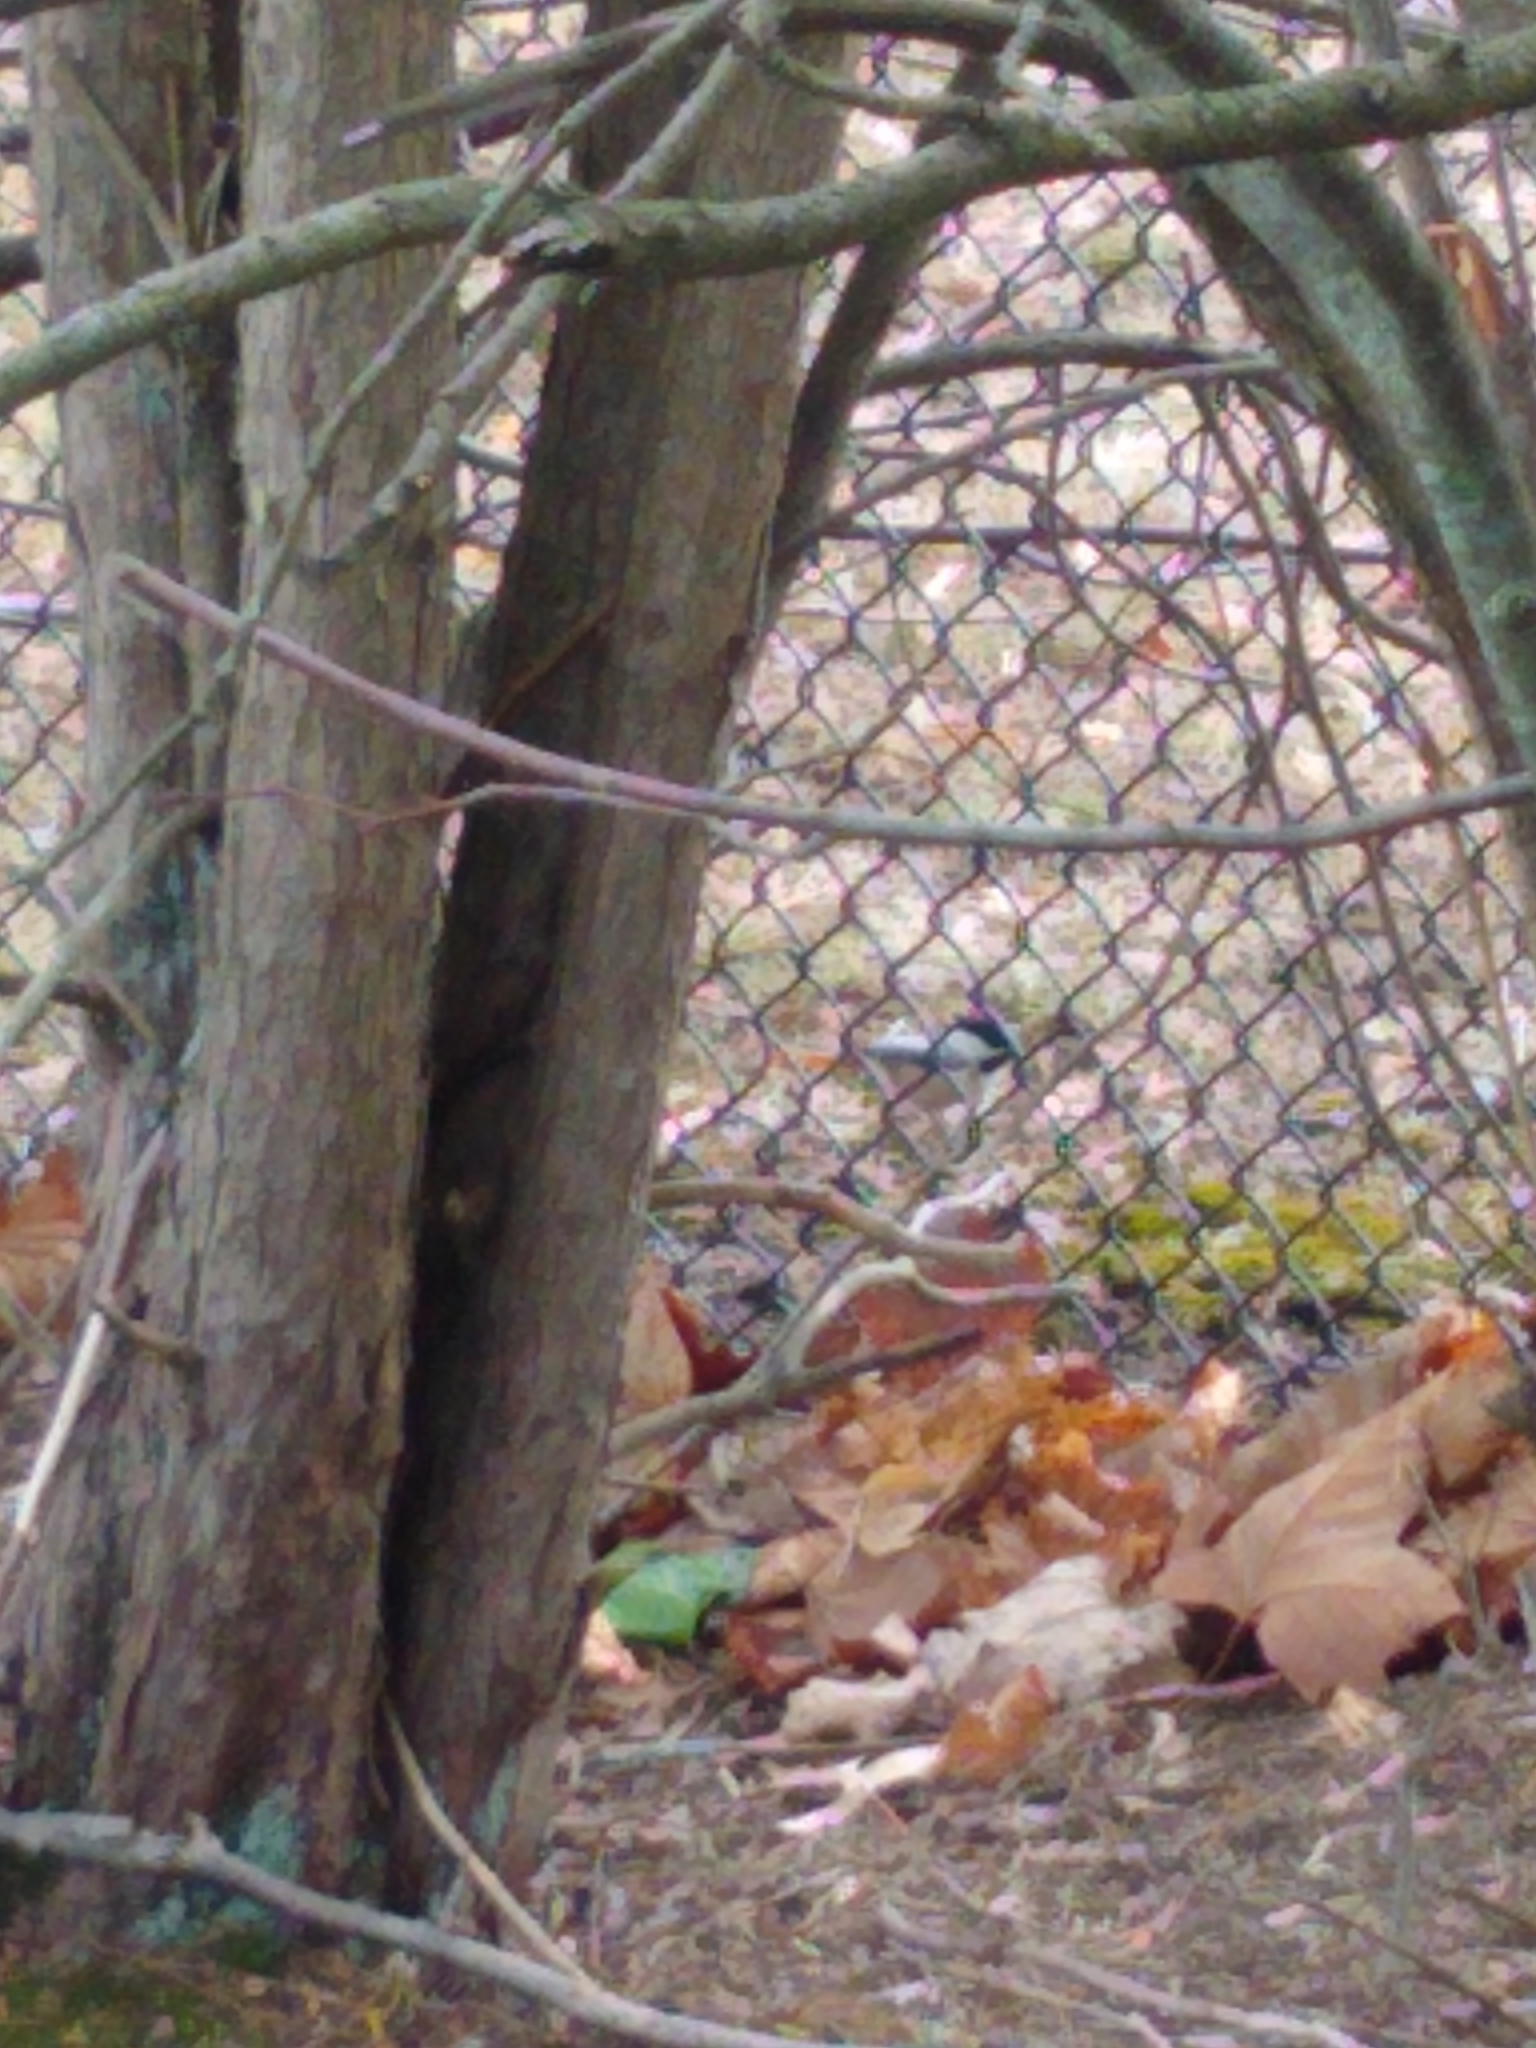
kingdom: Animalia
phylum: Chordata
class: Aves
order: Passeriformes
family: Paridae
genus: Poecile
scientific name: Poecile atricapillus
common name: Black-capped chickadee
